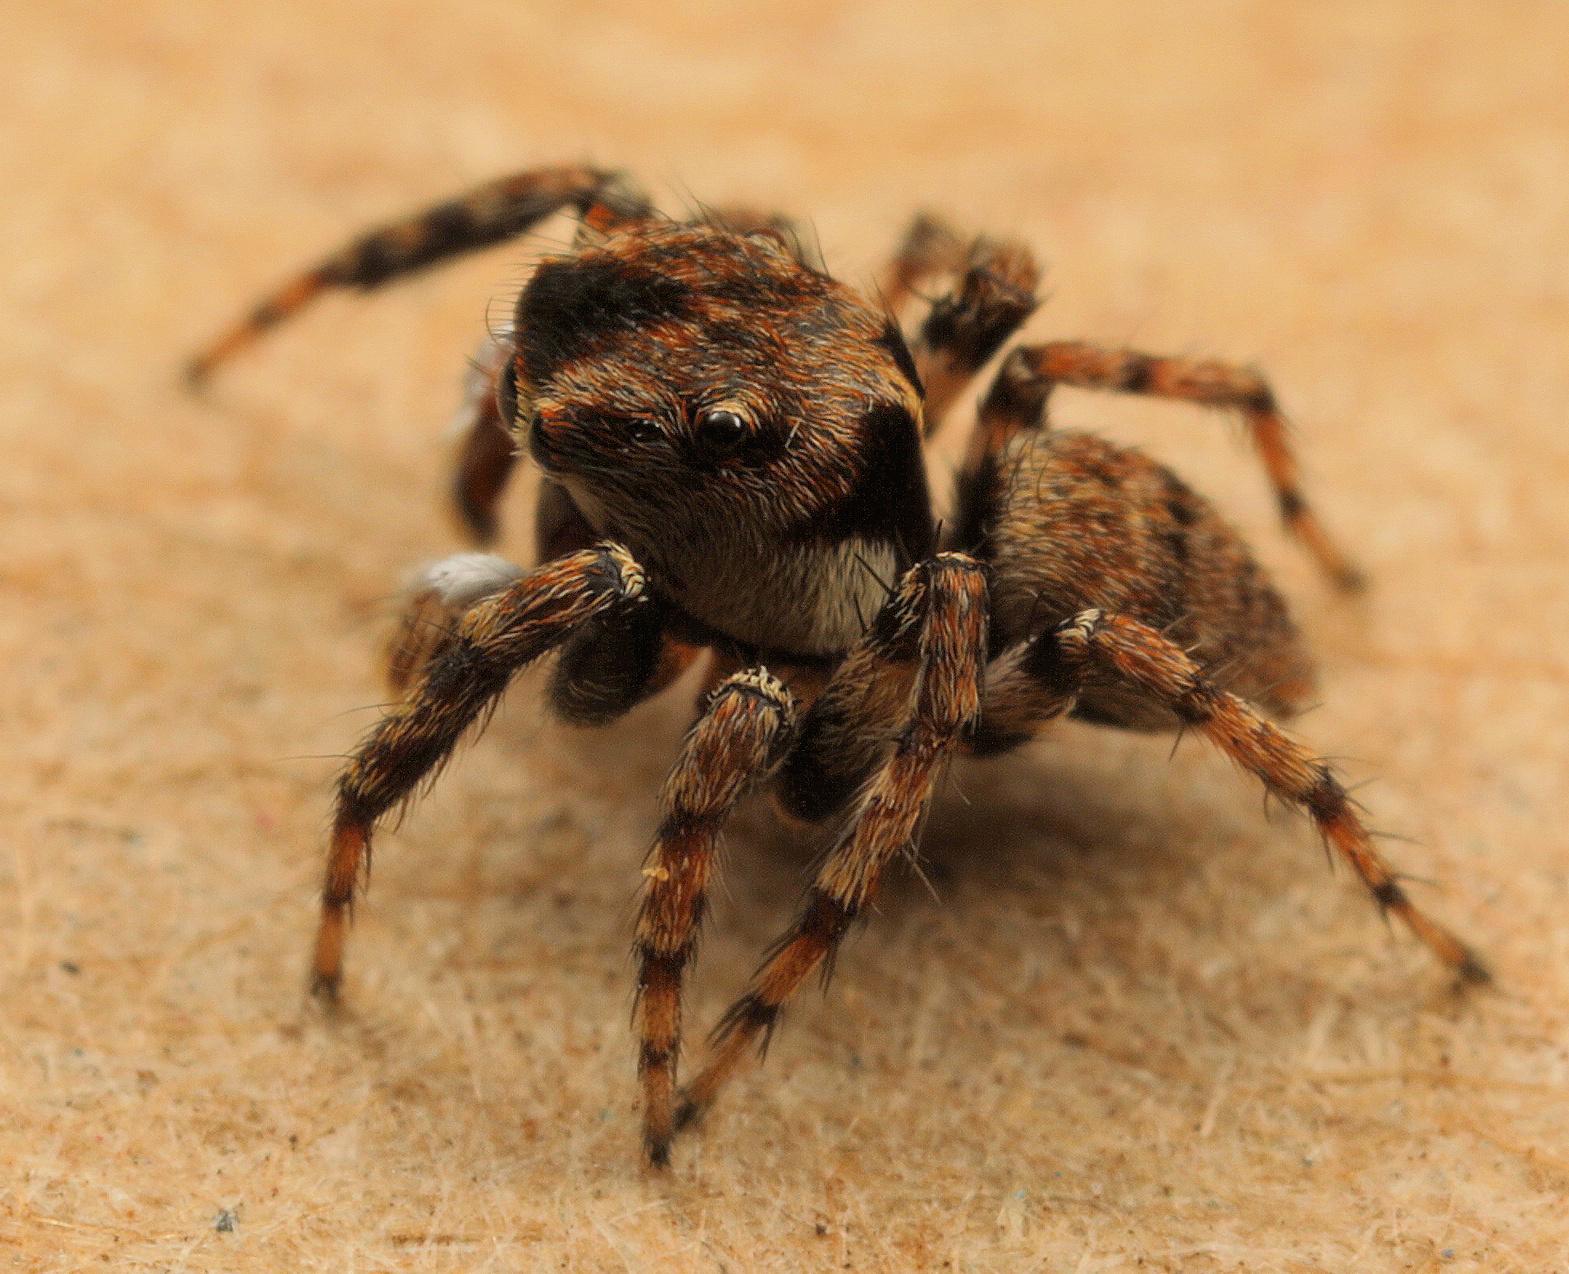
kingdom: Animalia
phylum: Arthropoda
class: Arachnida
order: Araneae
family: Salticidae
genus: Habrocestum
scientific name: Habrocestum africanum
